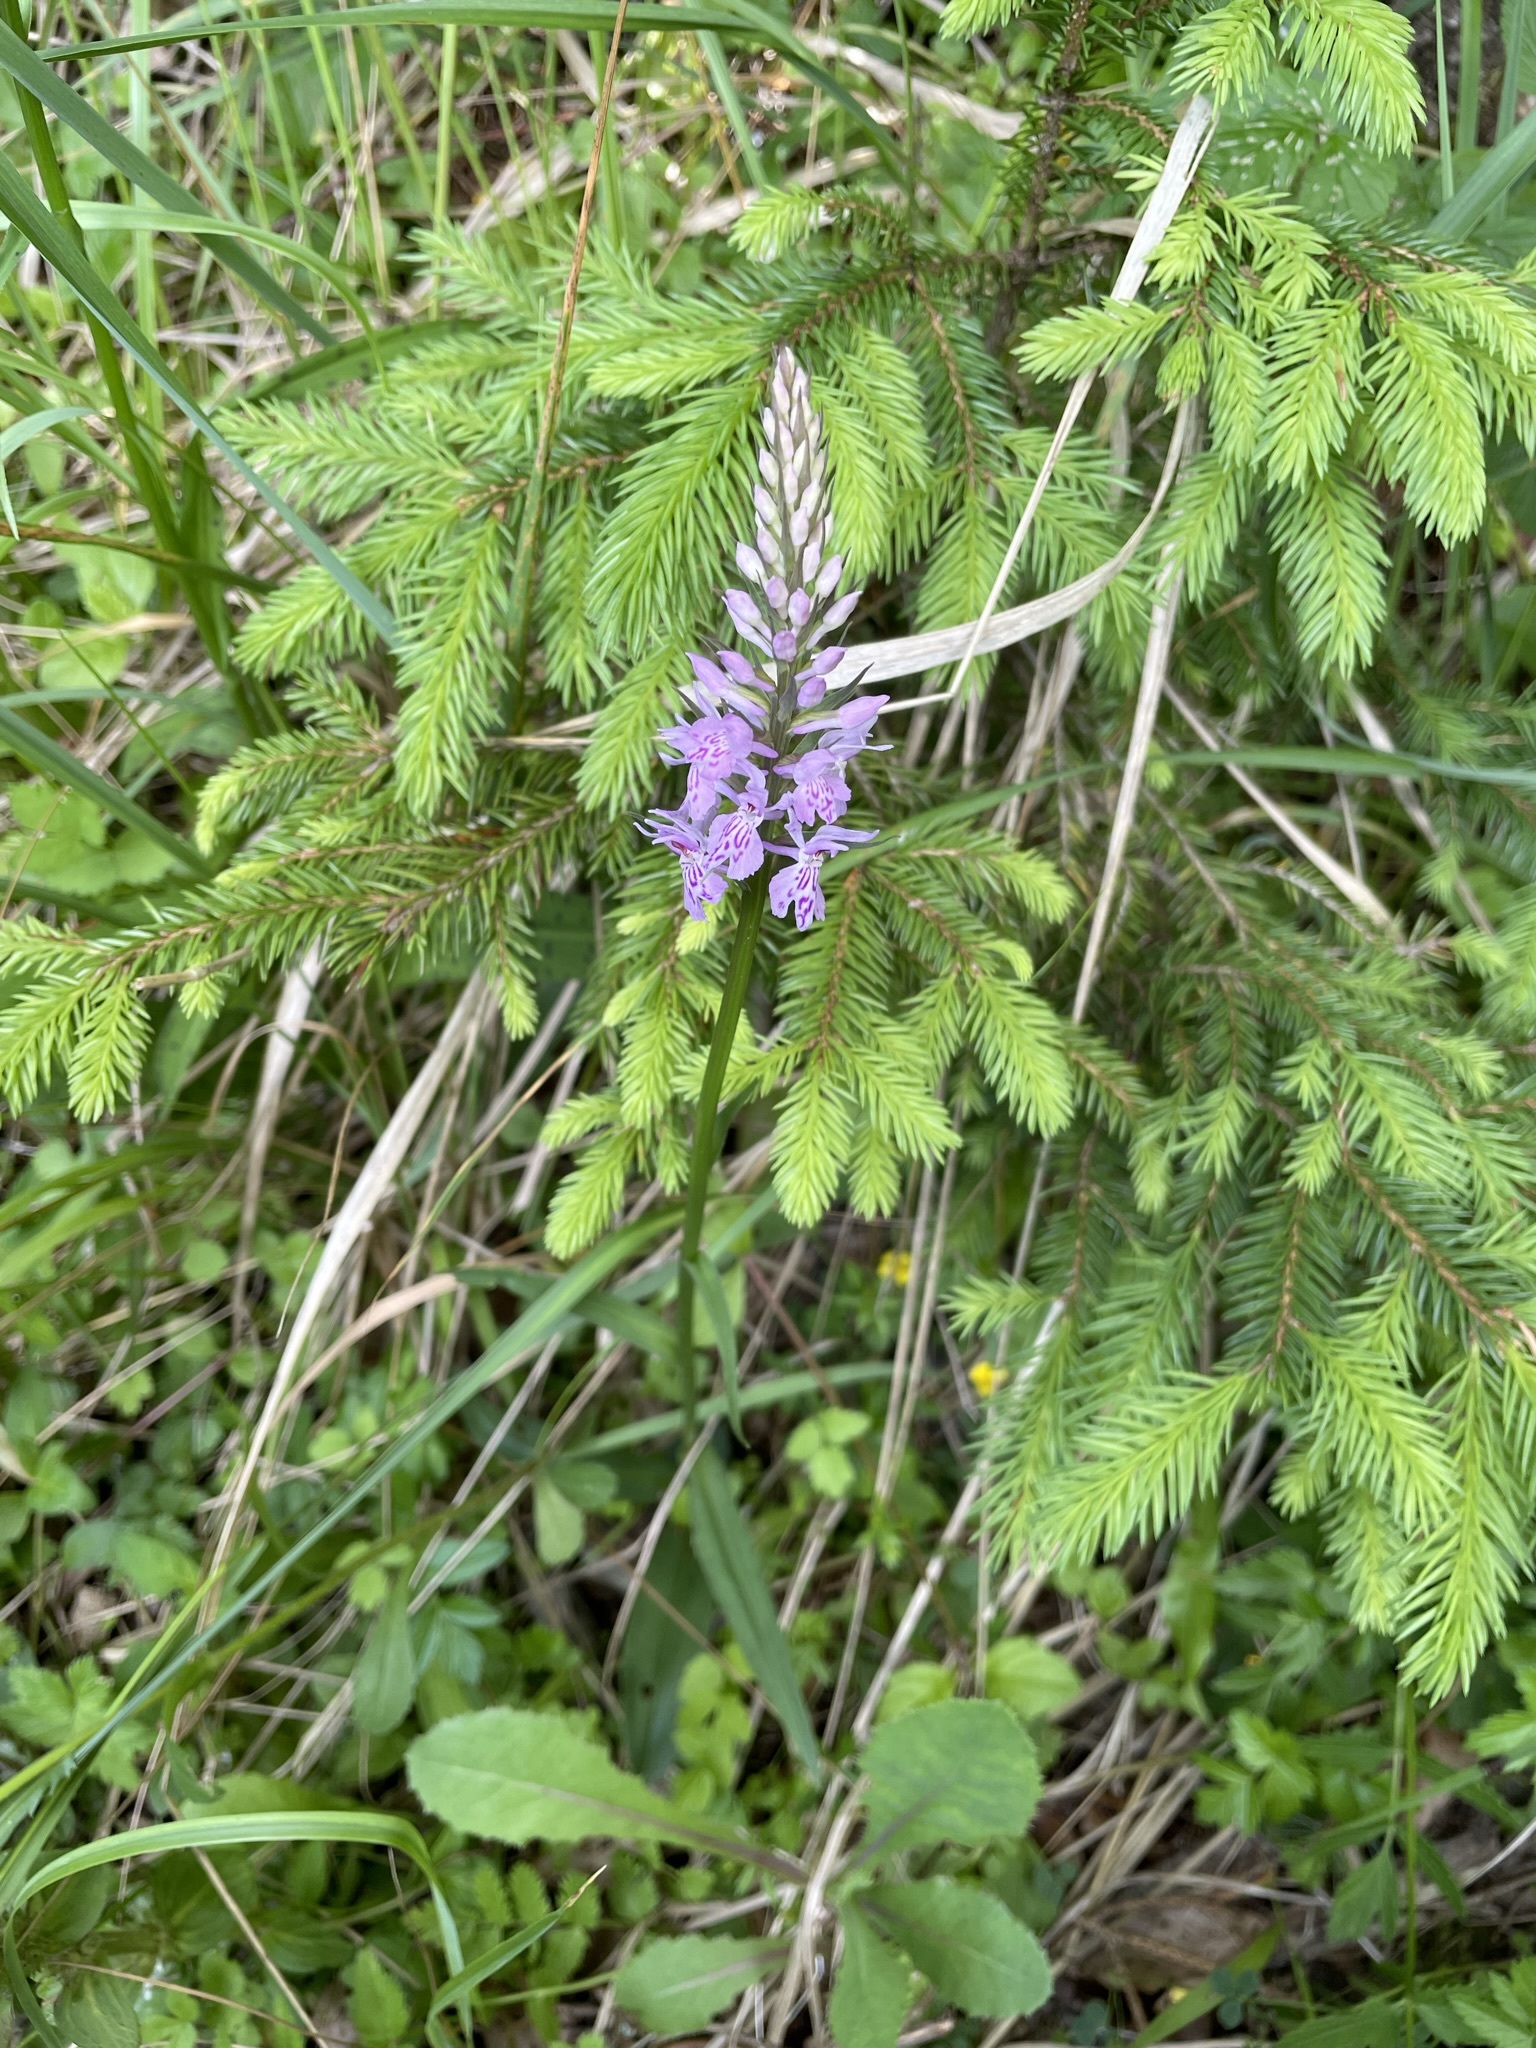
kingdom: Plantae
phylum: Tracheophyta
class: Liliopsida
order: Asparagales
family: Orchidaceae
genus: Dactylorhiza
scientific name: Dactylorhiza maculata
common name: Heath spotted-orchid
